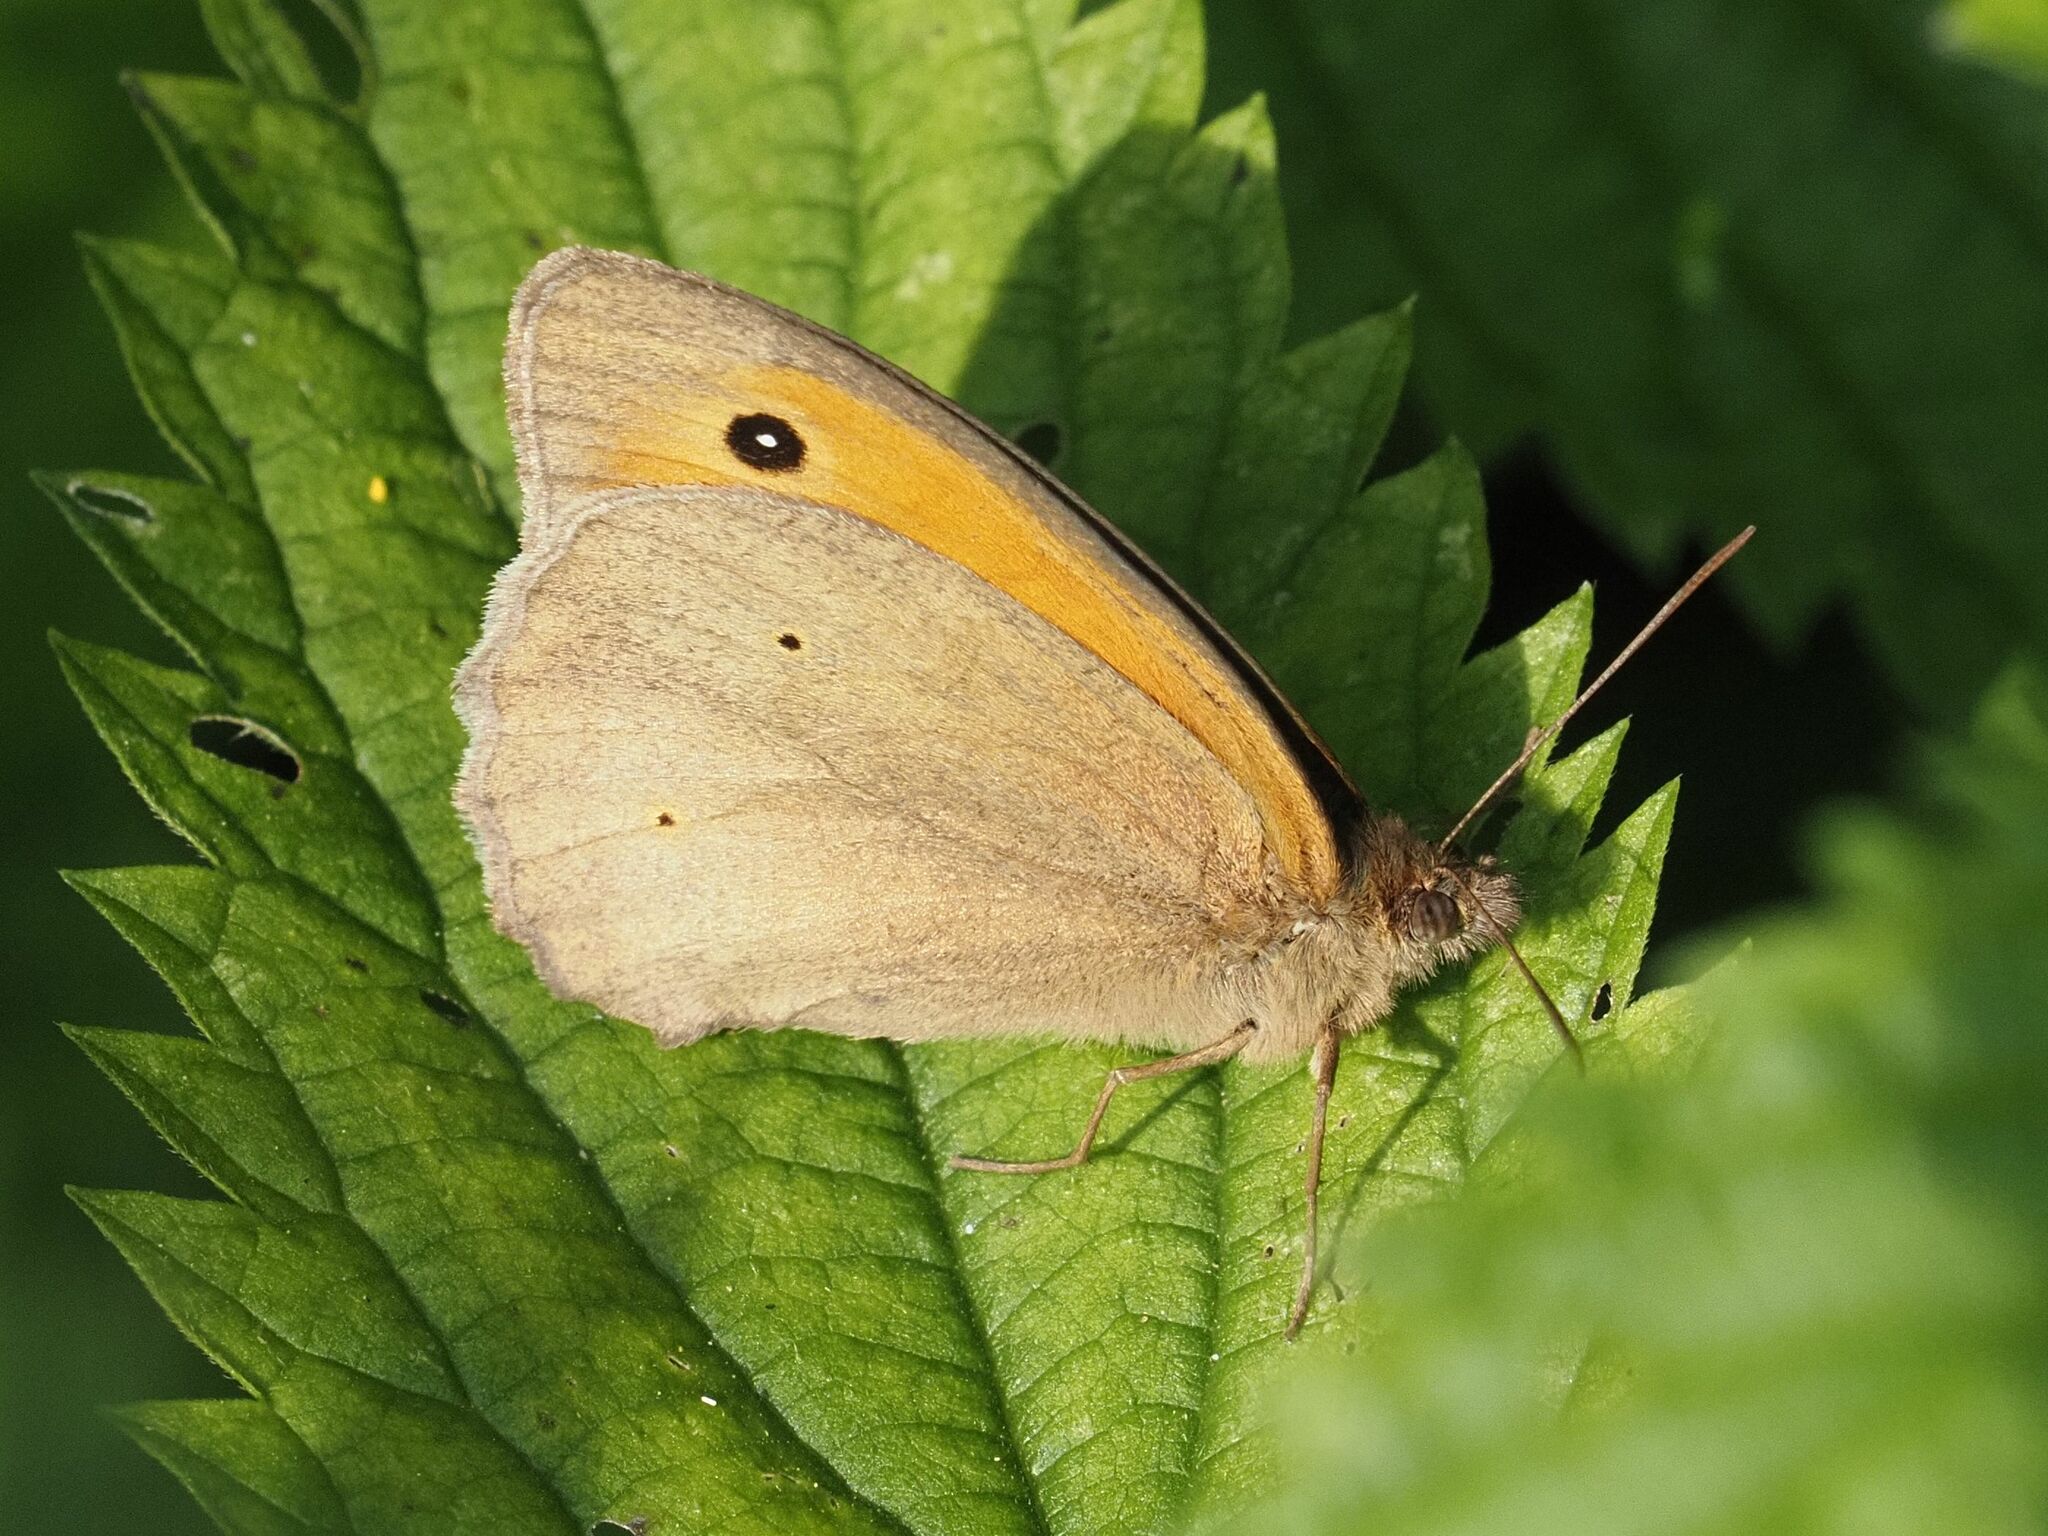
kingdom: Animalia
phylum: Arthropoda
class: Insecta
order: Lepidoptera
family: Nymphalidae
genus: Maniola
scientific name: Maniola jurtina
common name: Meadow brown
